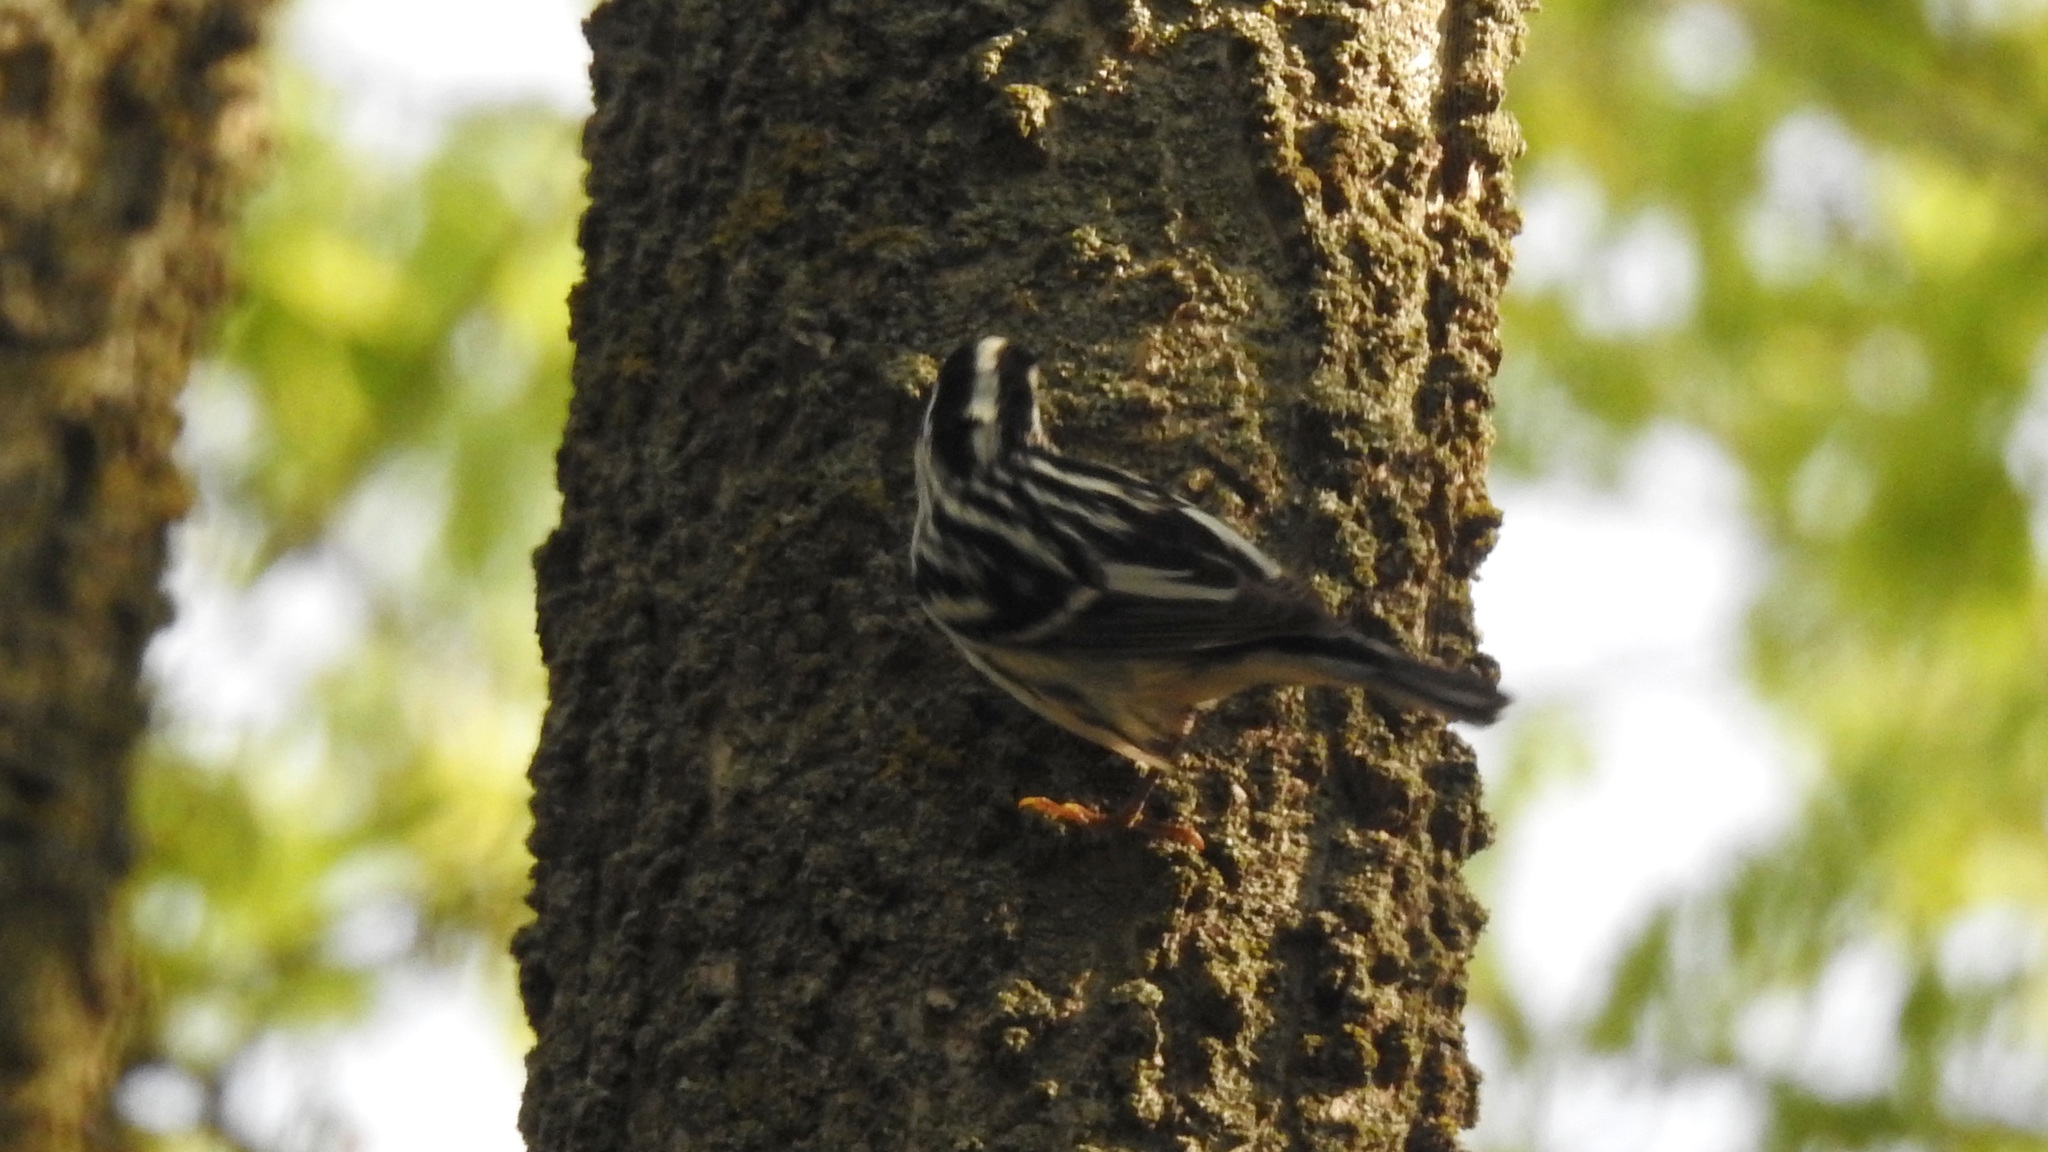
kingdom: Animalia
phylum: Chordata
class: Aves
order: Passeriformes
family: Parulidae
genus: Mniotilta
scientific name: Mniotilta varia
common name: Black-and-white warbler
